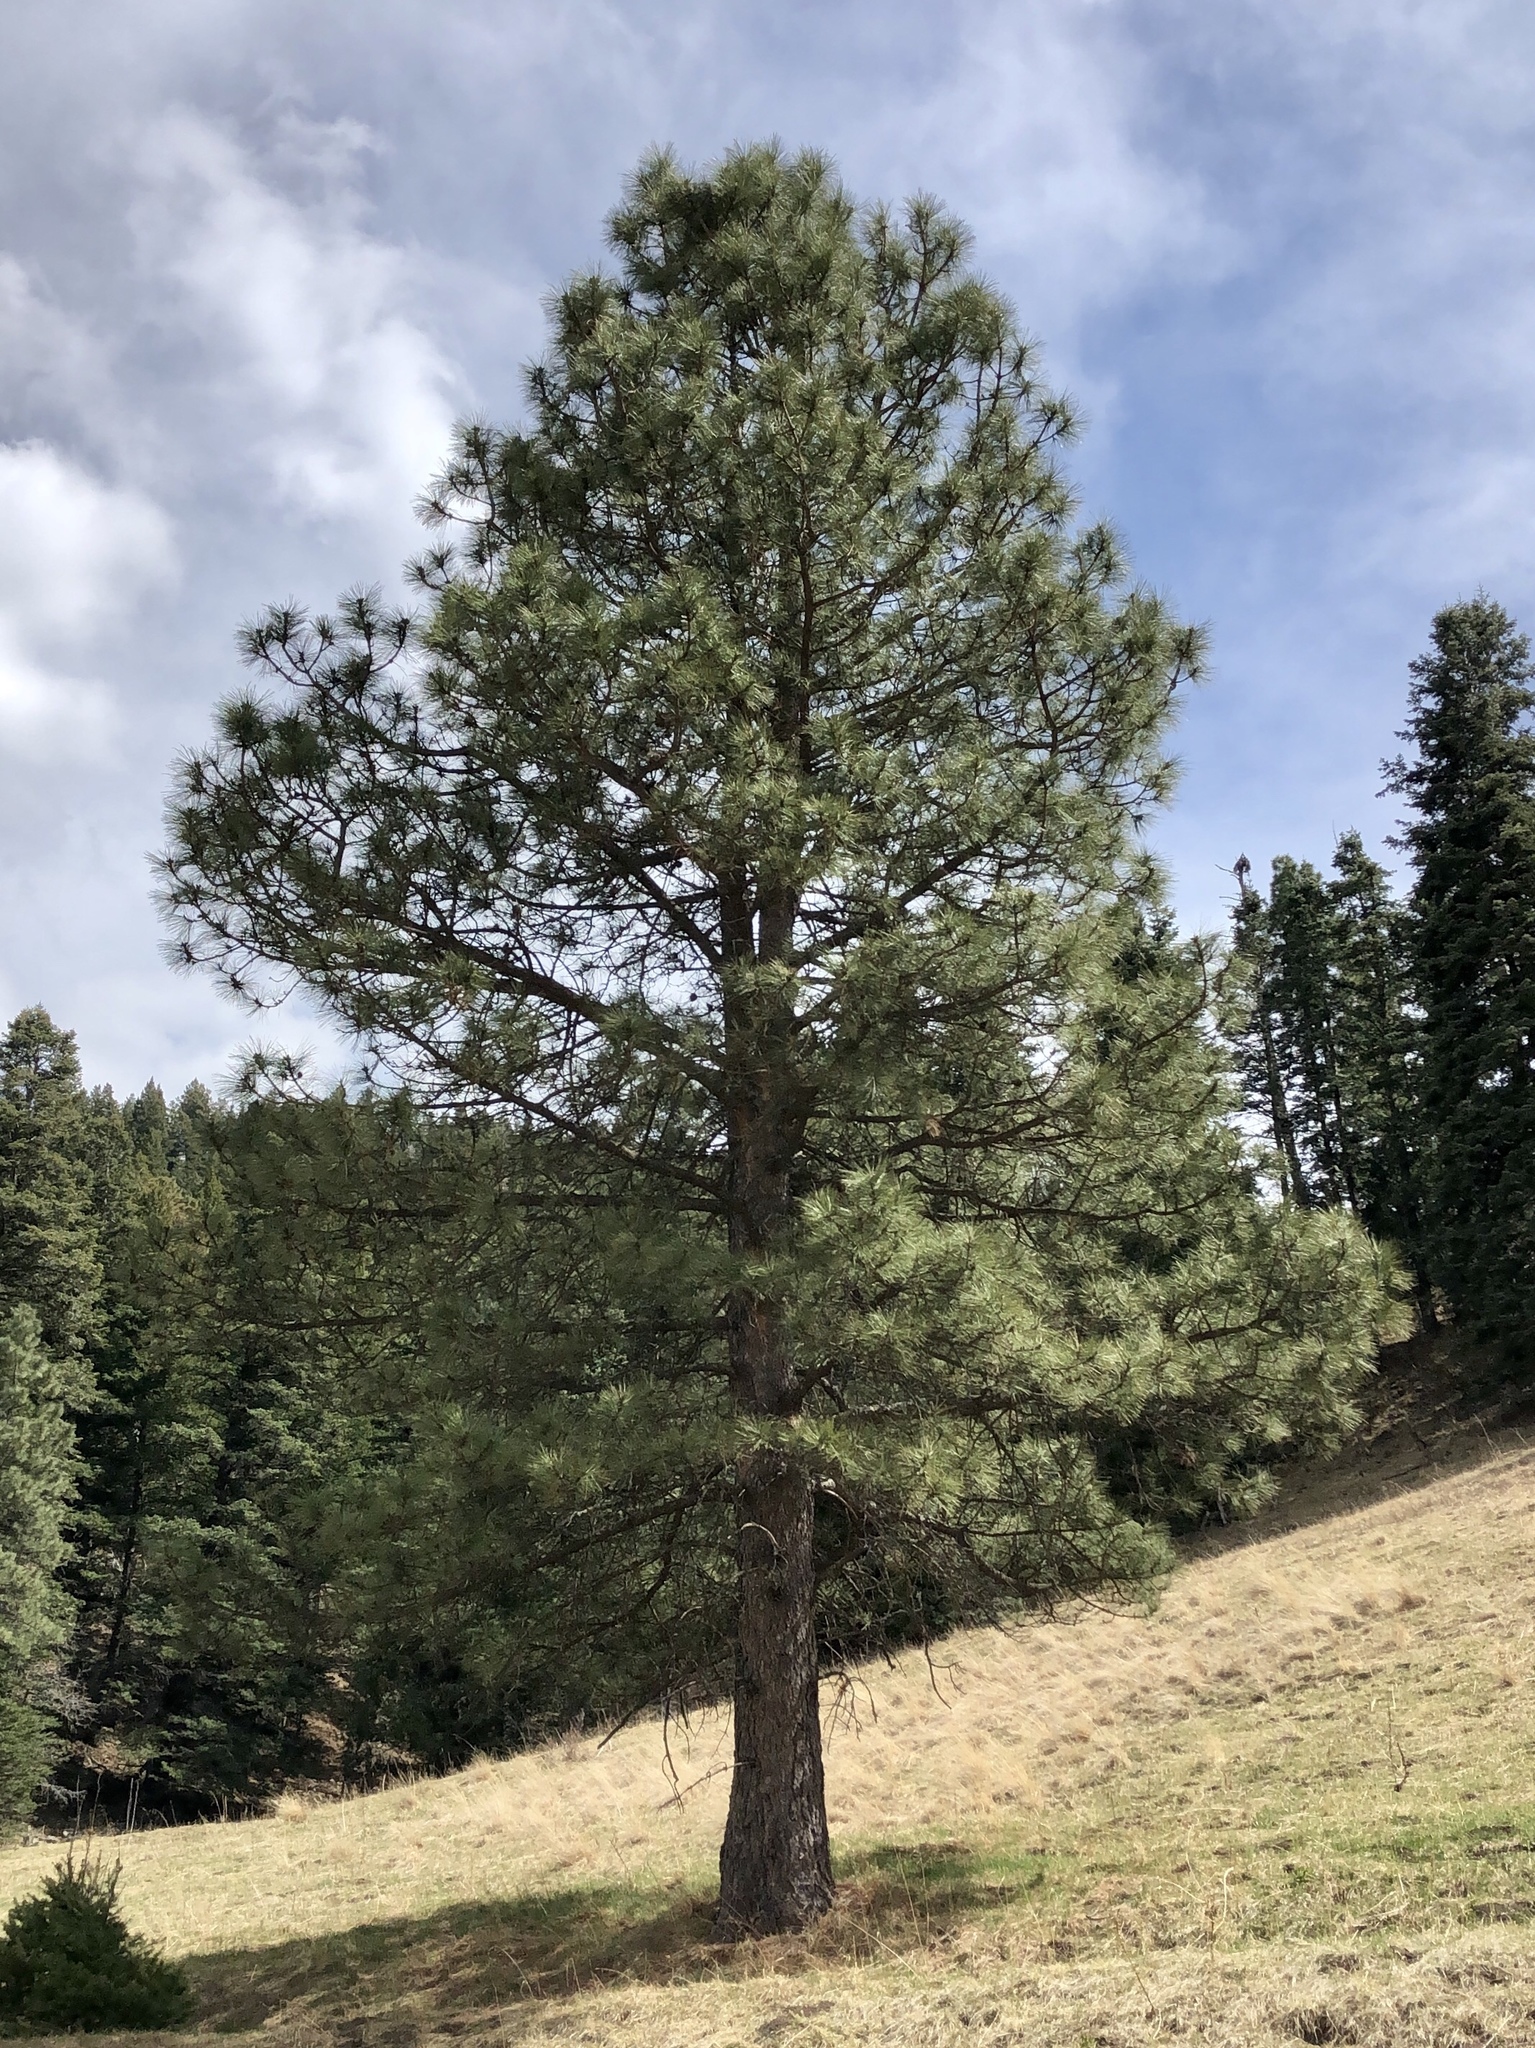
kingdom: Plantae
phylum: Tracheophyta
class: Pinopsida
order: Pinales
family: Pinaceae
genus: Pinus
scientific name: Pinus ponderosa
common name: Western yellow-pine
